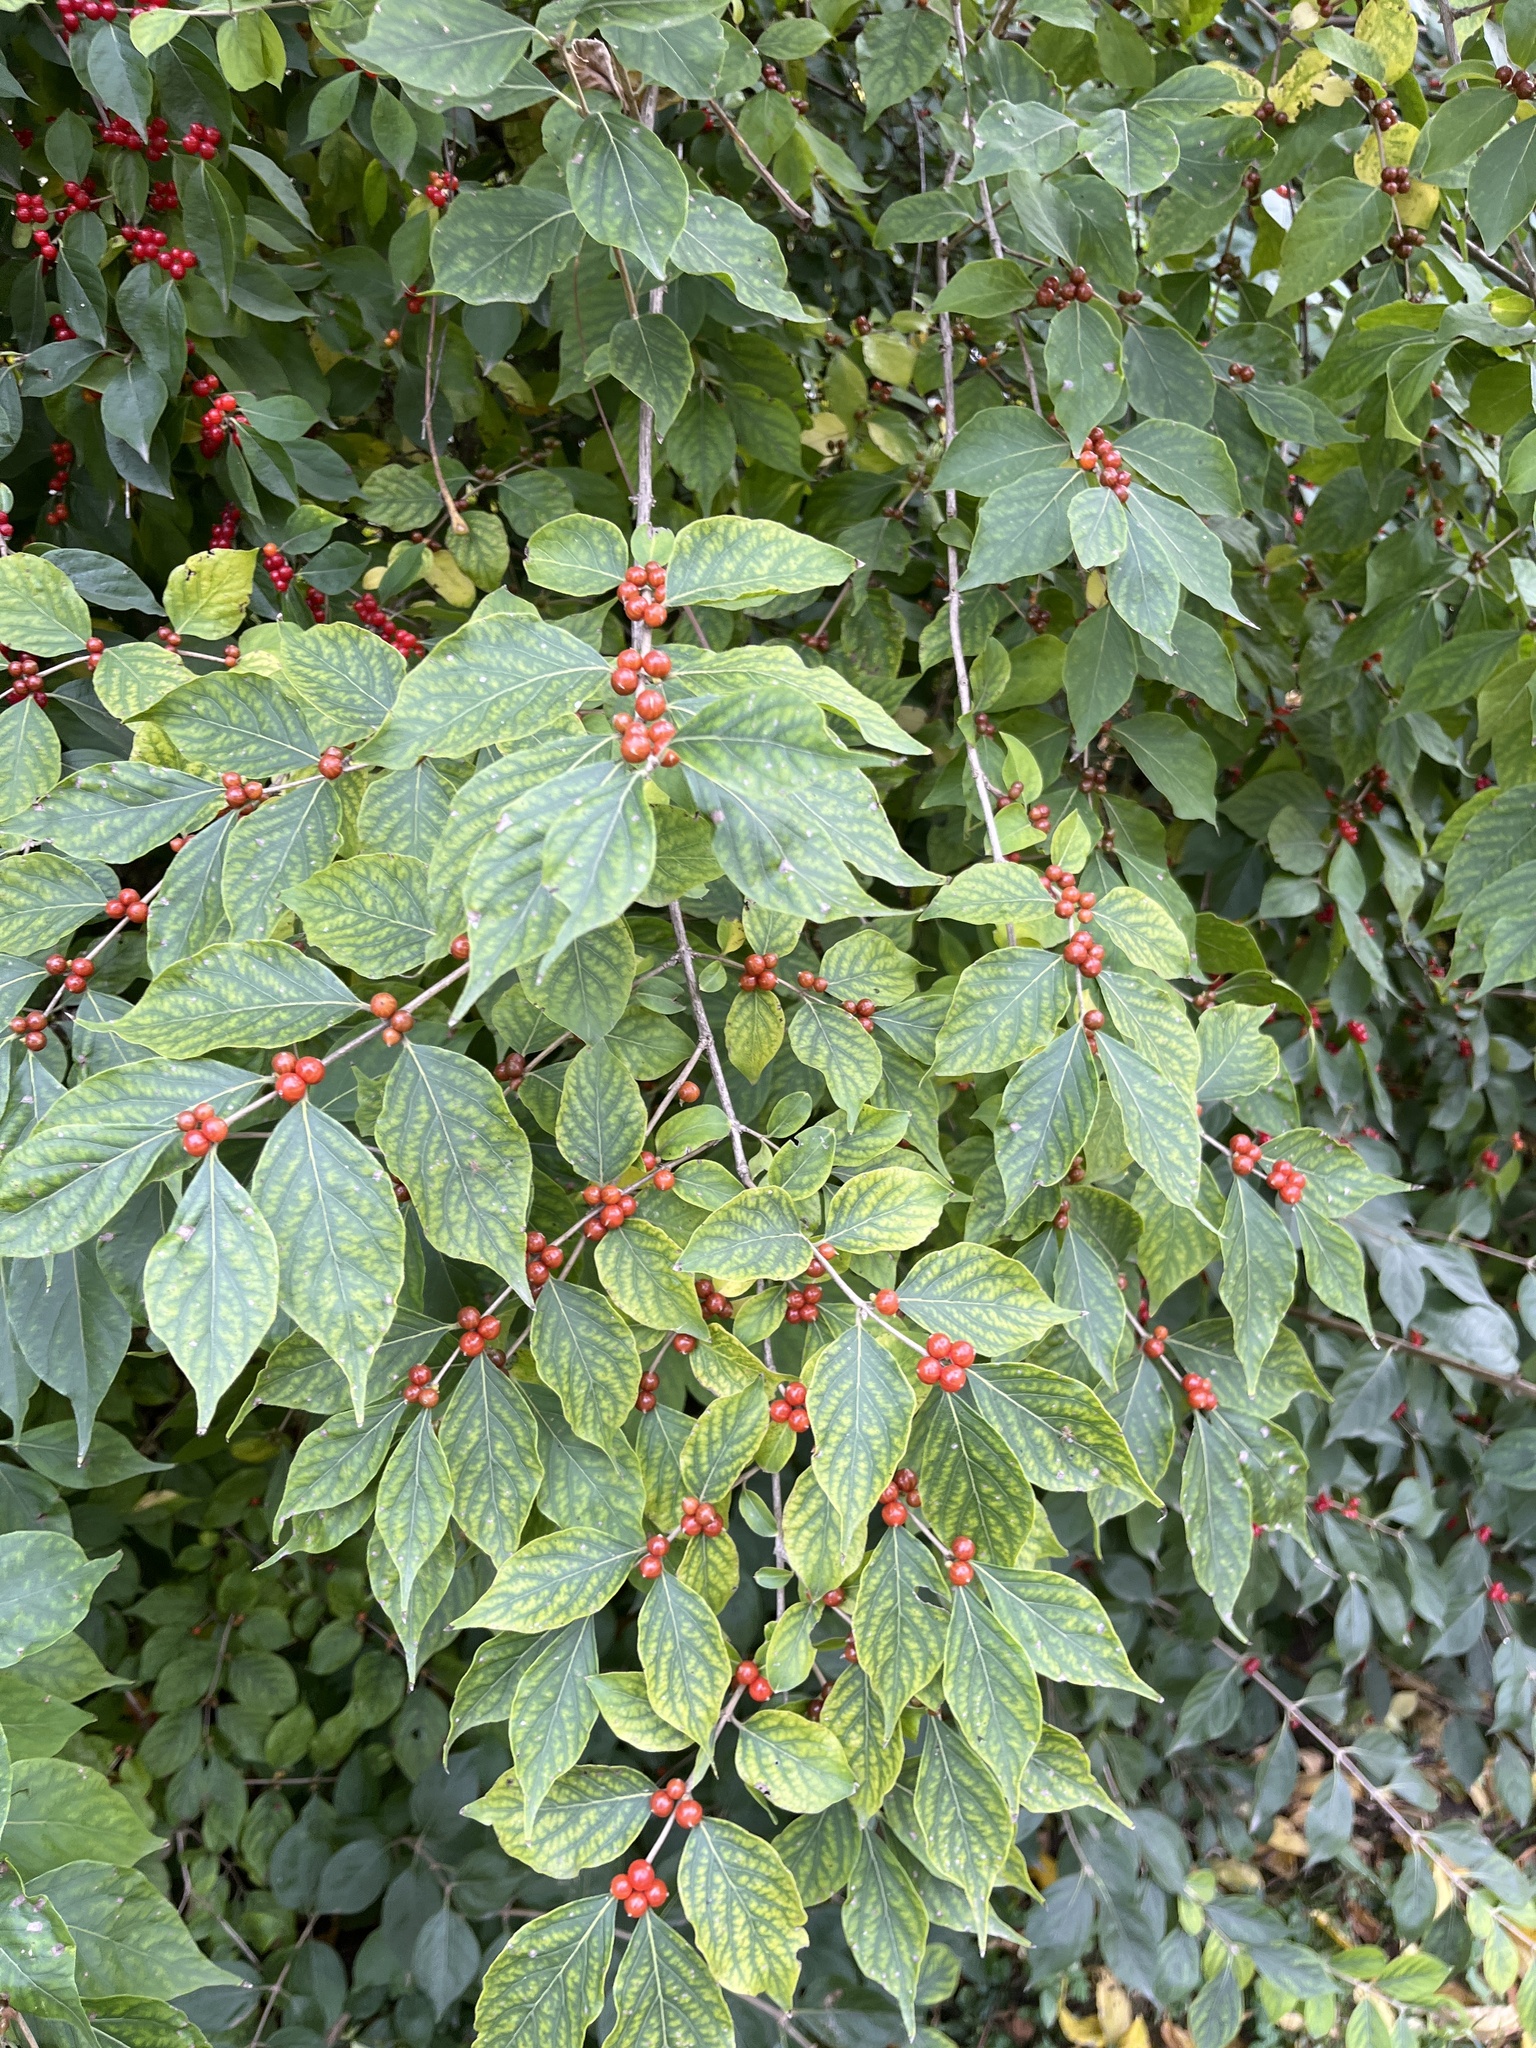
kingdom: Plantae
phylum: Tracheophyta
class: Magnoliopsida
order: Dipsacales
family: Caprifoliaceae
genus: Lonicera
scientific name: Lonicera maackii
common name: Amur honeysuckle
